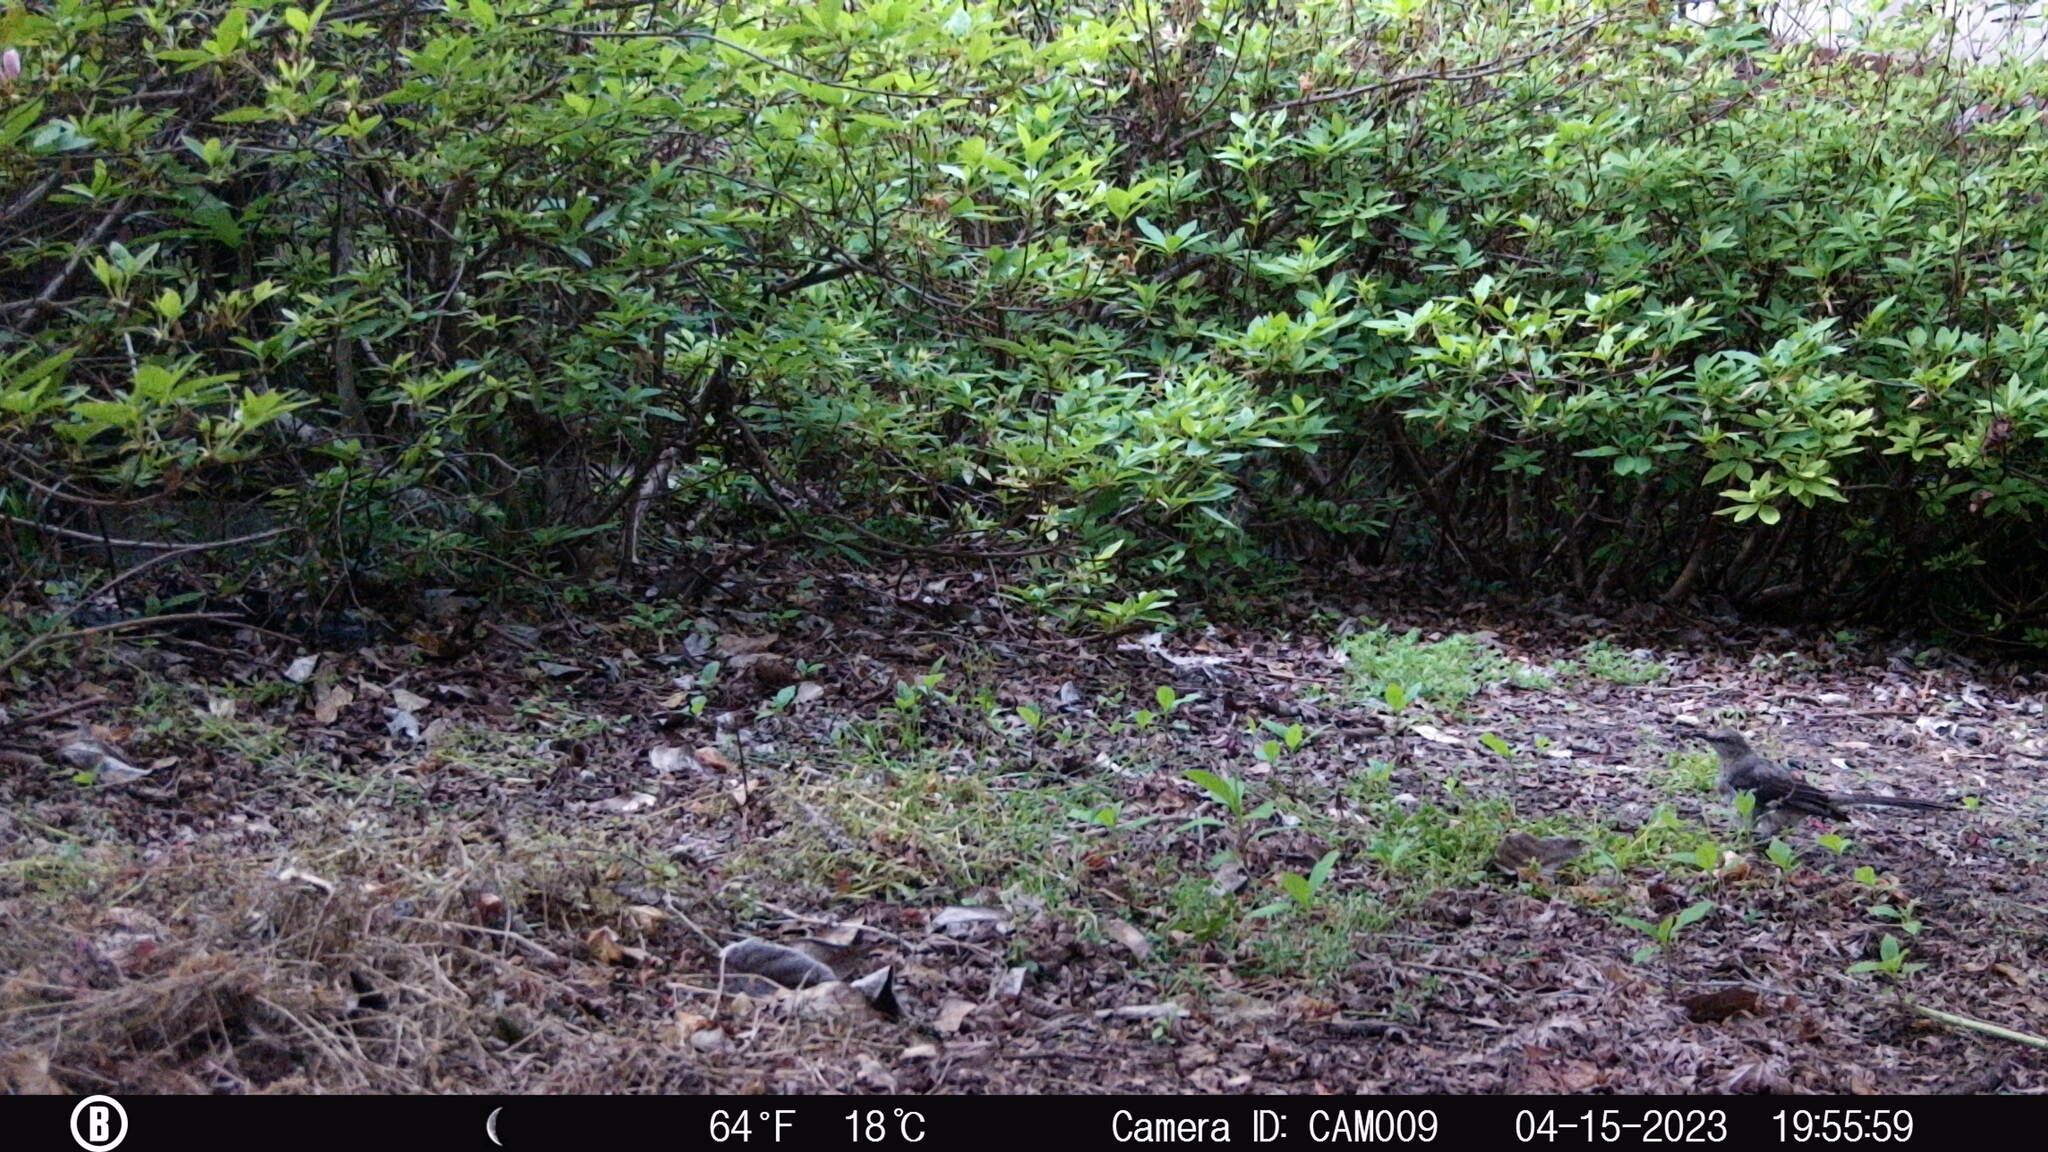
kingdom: Animalia
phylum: Chordata
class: Aves
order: Passeriformes
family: Mimidae
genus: Mimus
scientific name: Mimus polyglottos
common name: Northern mockingbird
